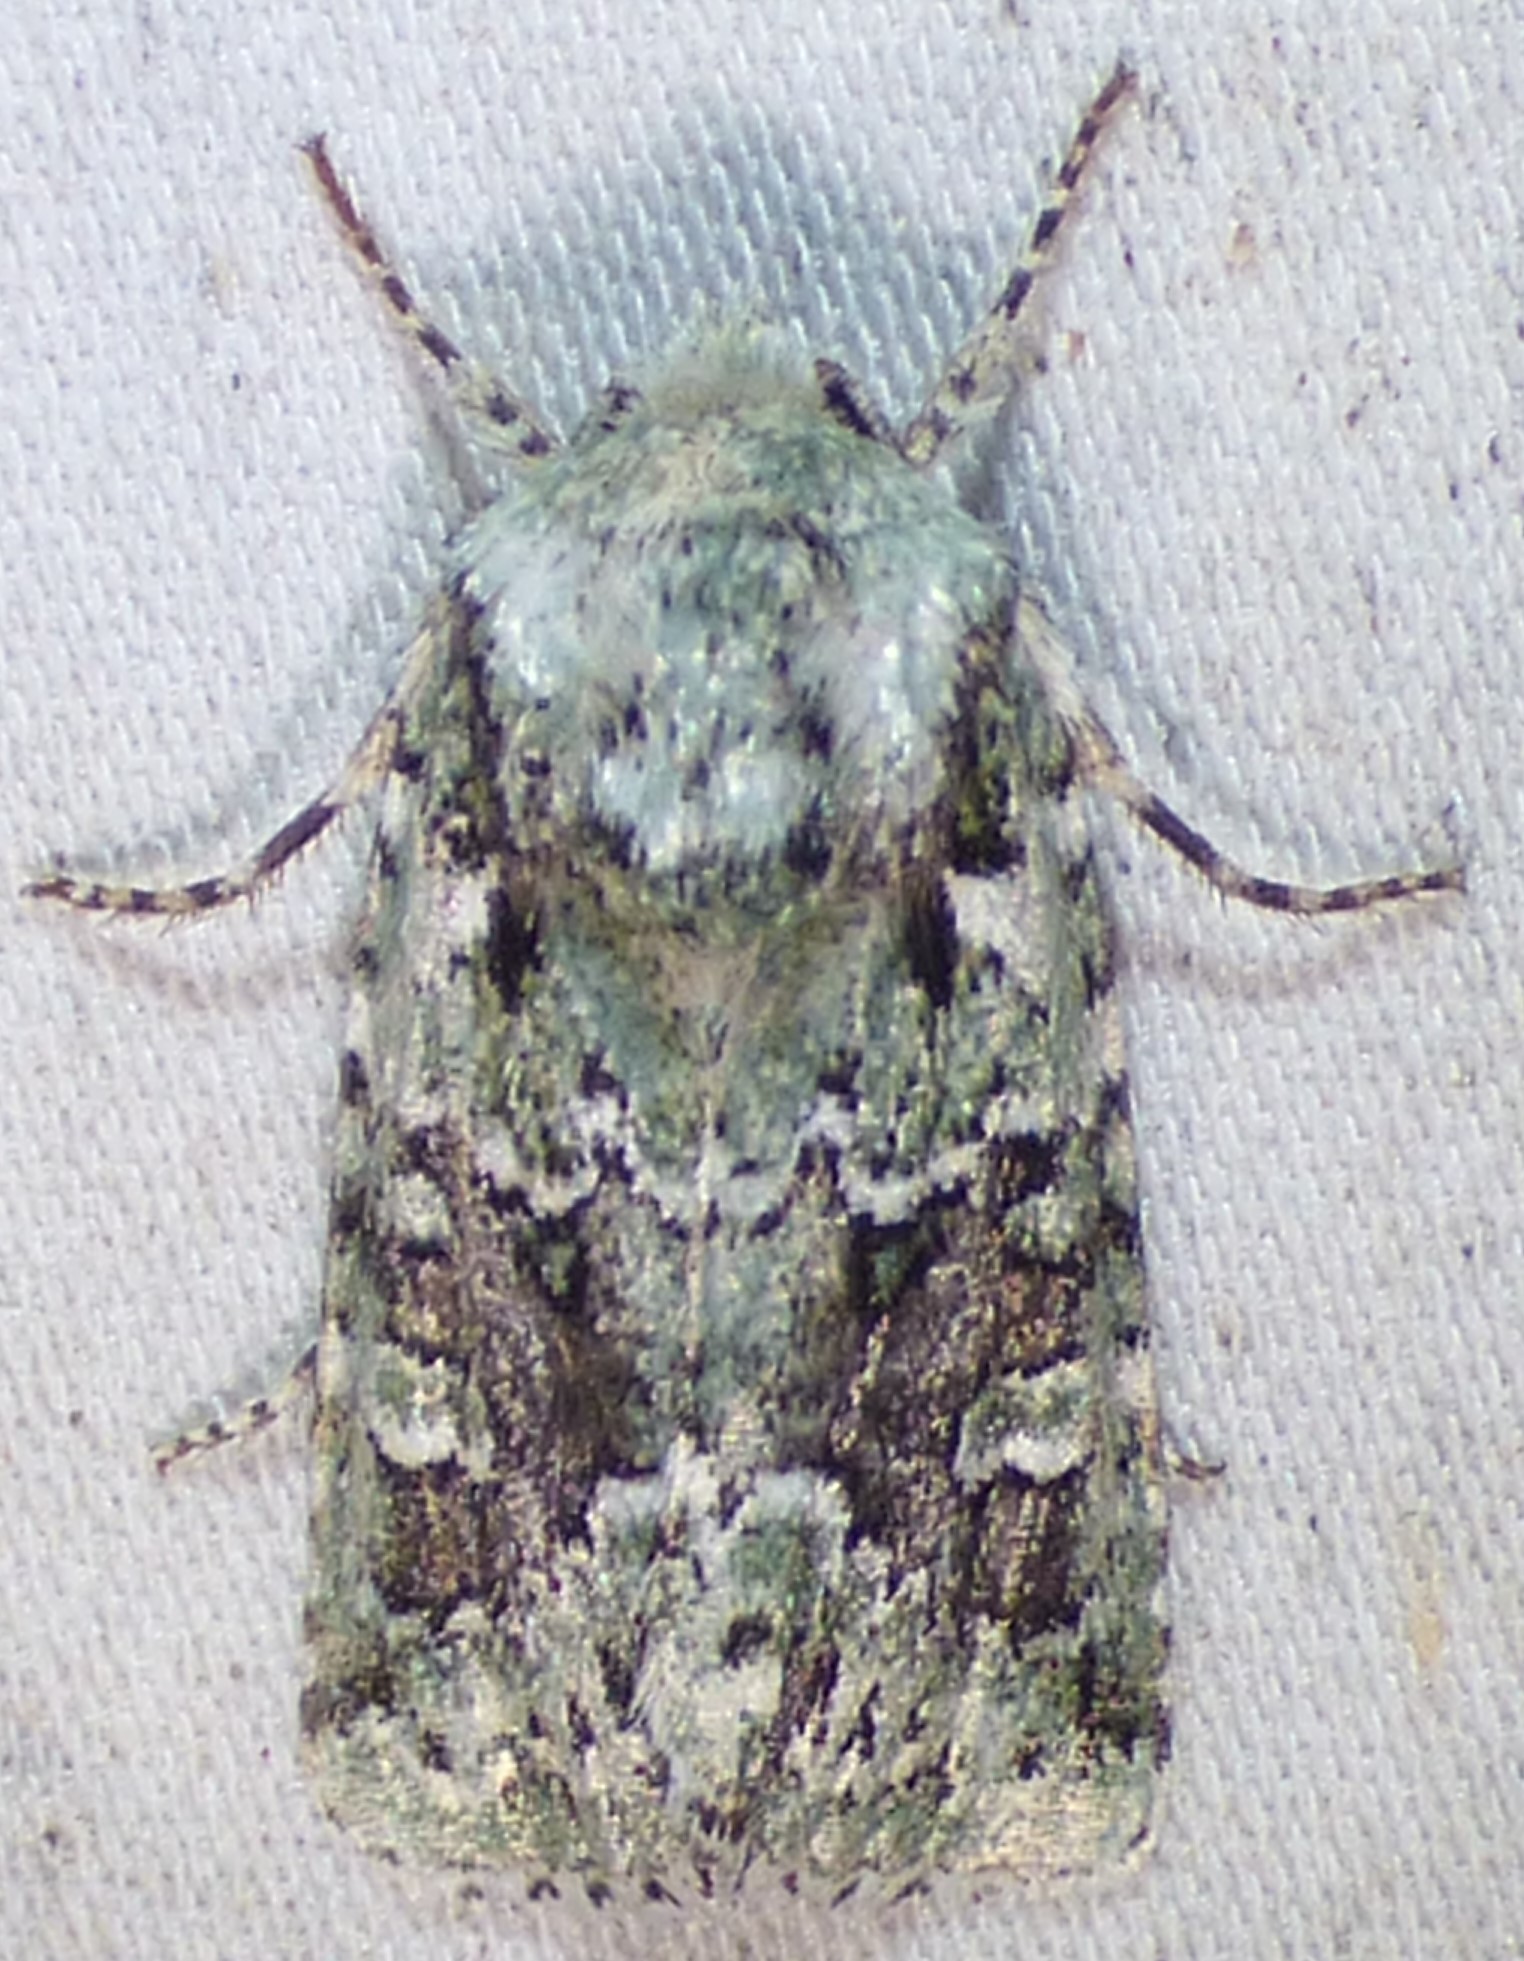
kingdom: Animalia
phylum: Arthropoda
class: Insecta
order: Lepidoptera
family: Noctuidae
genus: Lacinipolia
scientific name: Lacinipolia laudabilis
